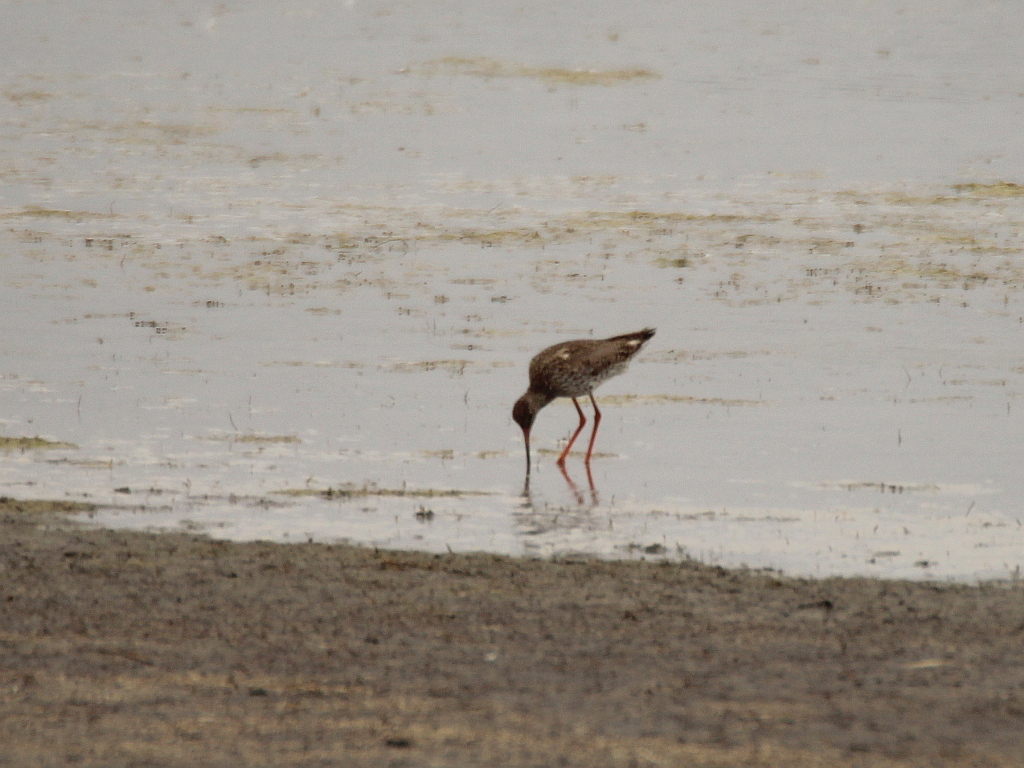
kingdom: Animalia
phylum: Chordata
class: Aves
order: Charadriiformes
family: Scolopacidae
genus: Tringa
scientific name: Tringa totanus
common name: Common redshank
